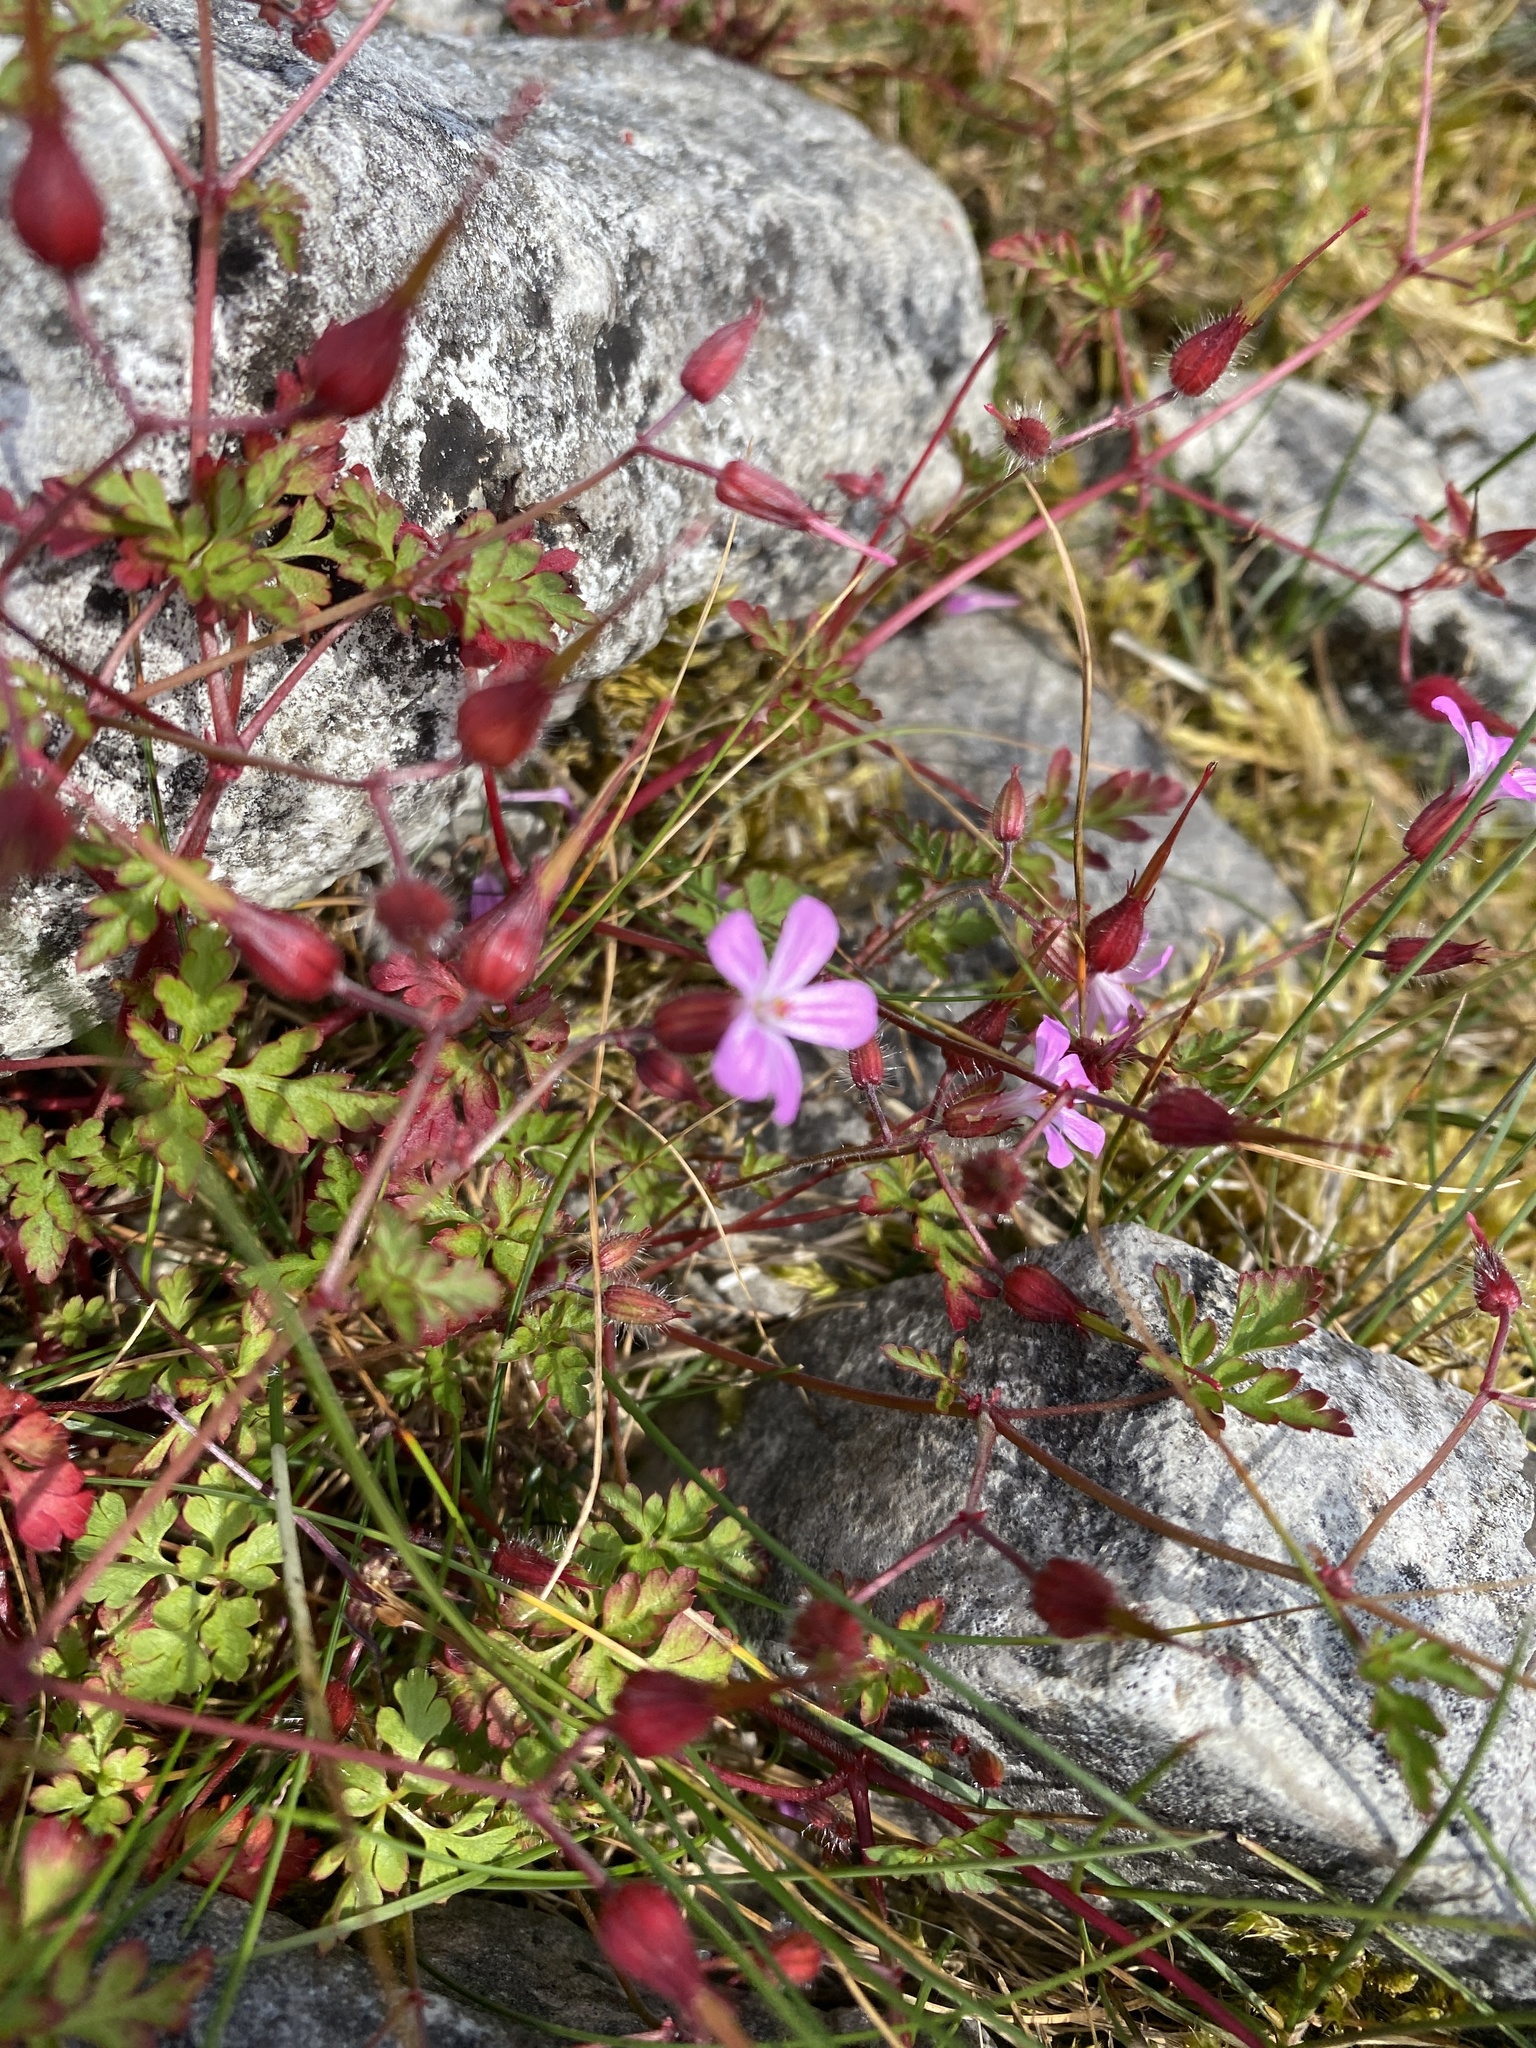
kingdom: Plantae
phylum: Tracheophyta
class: Magnoliopsida
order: Geraniales
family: Geraniaceae
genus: Geranium
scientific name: Geranium robertianum
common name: Herb-robert
